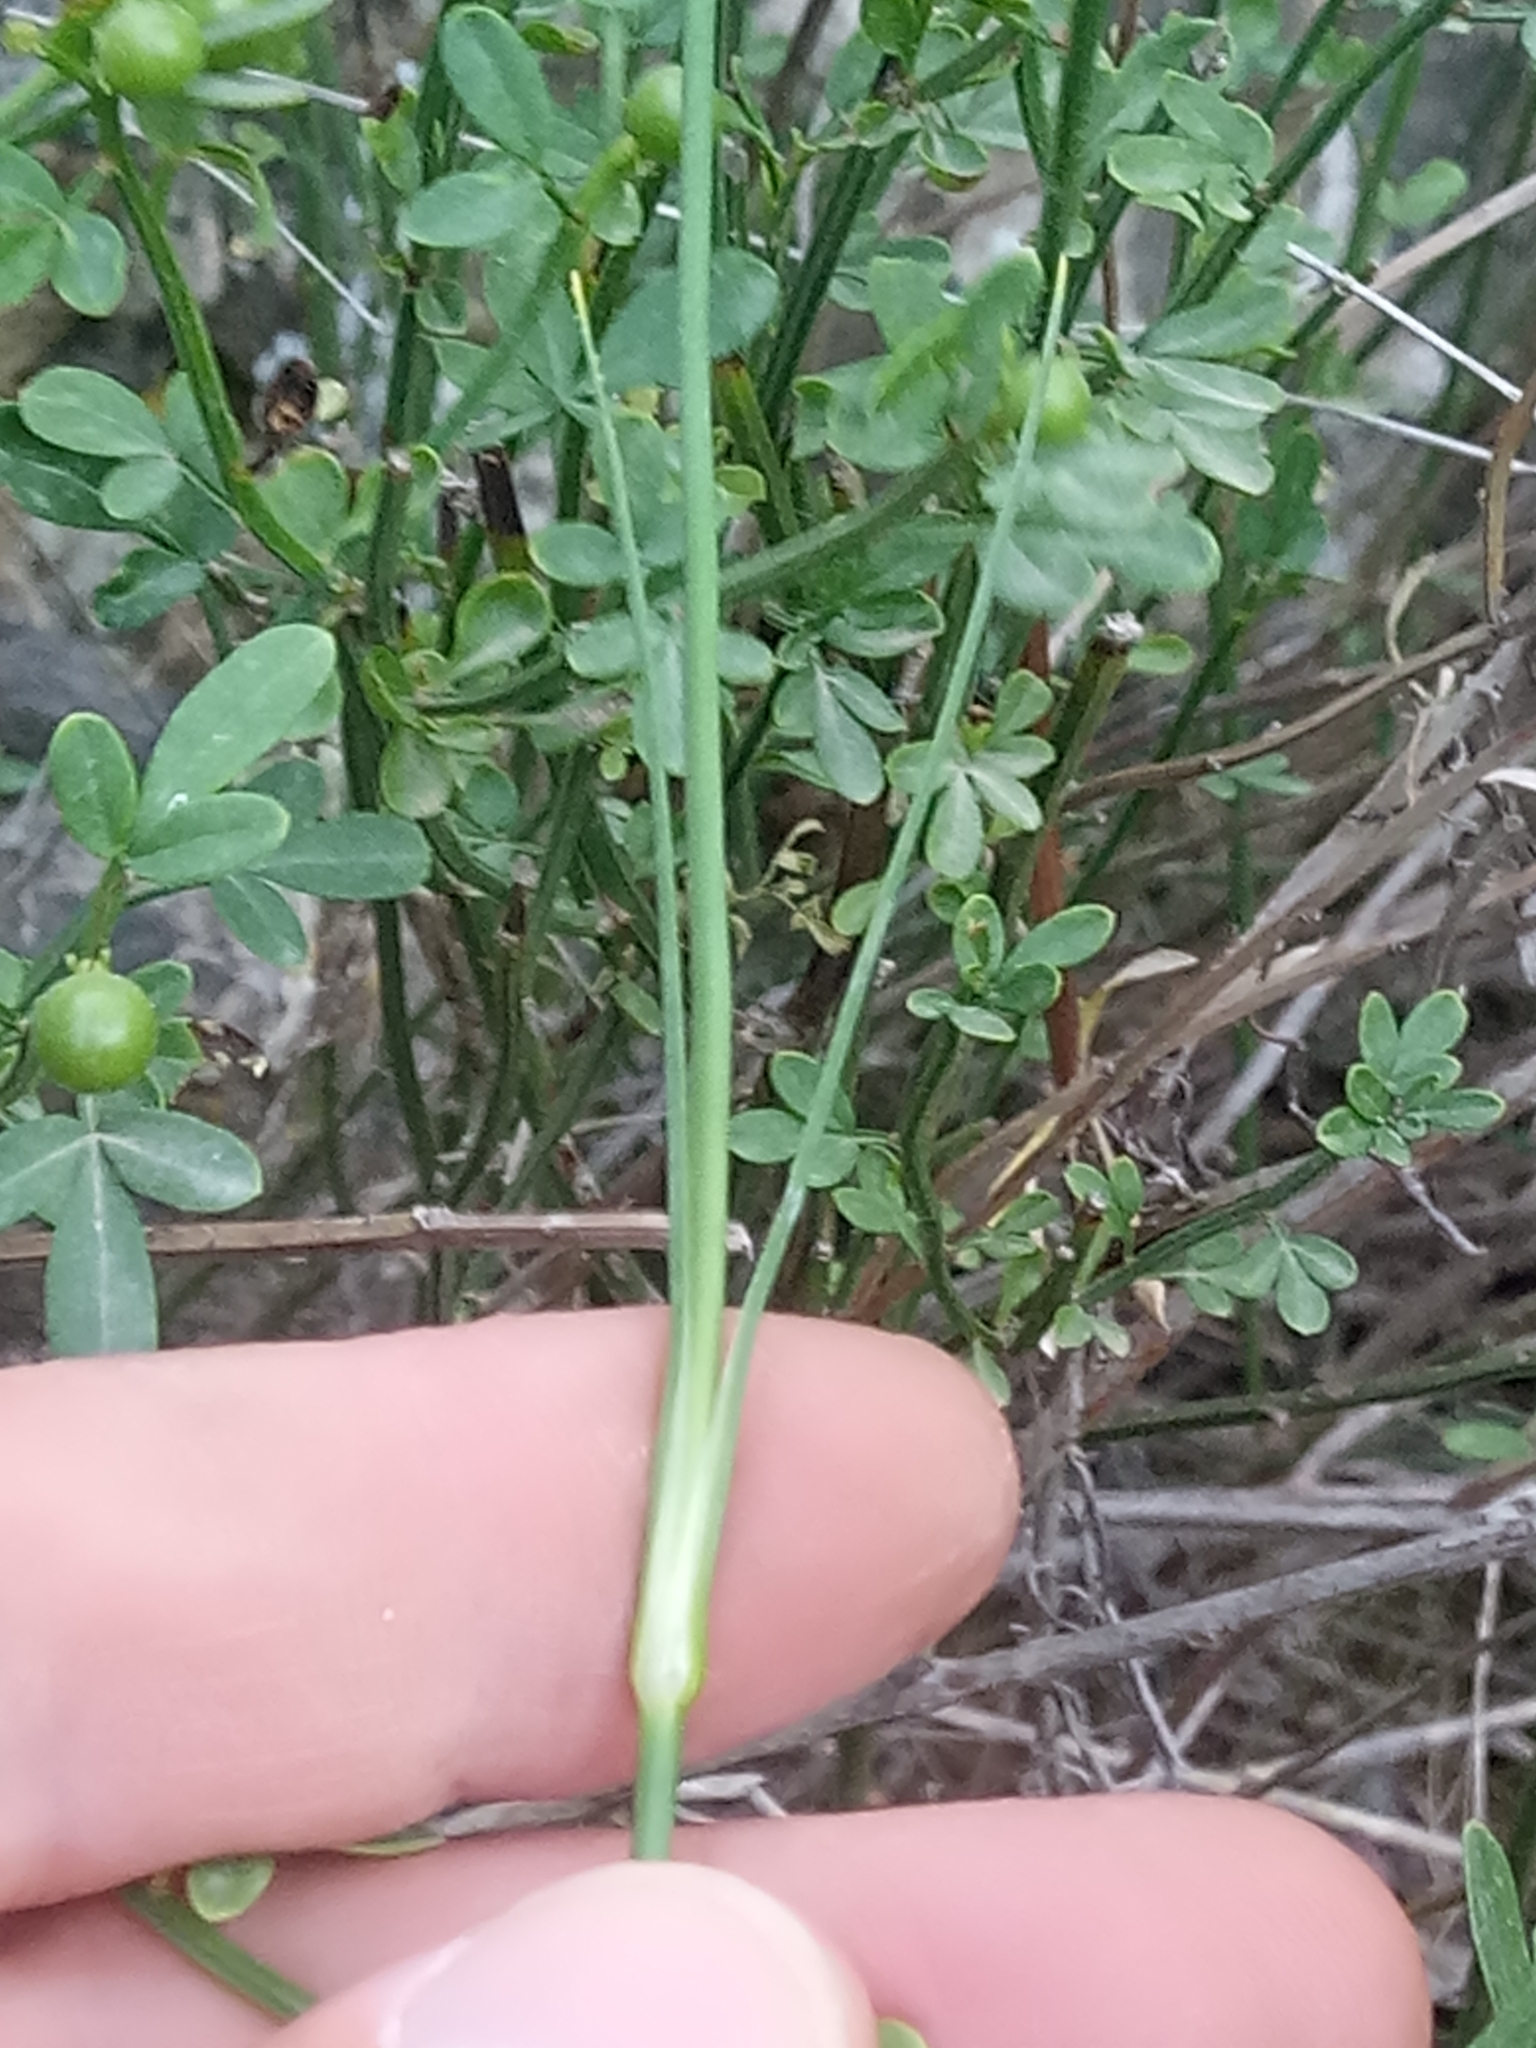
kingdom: Plantae
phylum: Tracheophyta
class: Magnoliopsida
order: Caryophyllales
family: Caryophyllaceae
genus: Dianthus
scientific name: Dianthus sylvestris
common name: Wood pink
